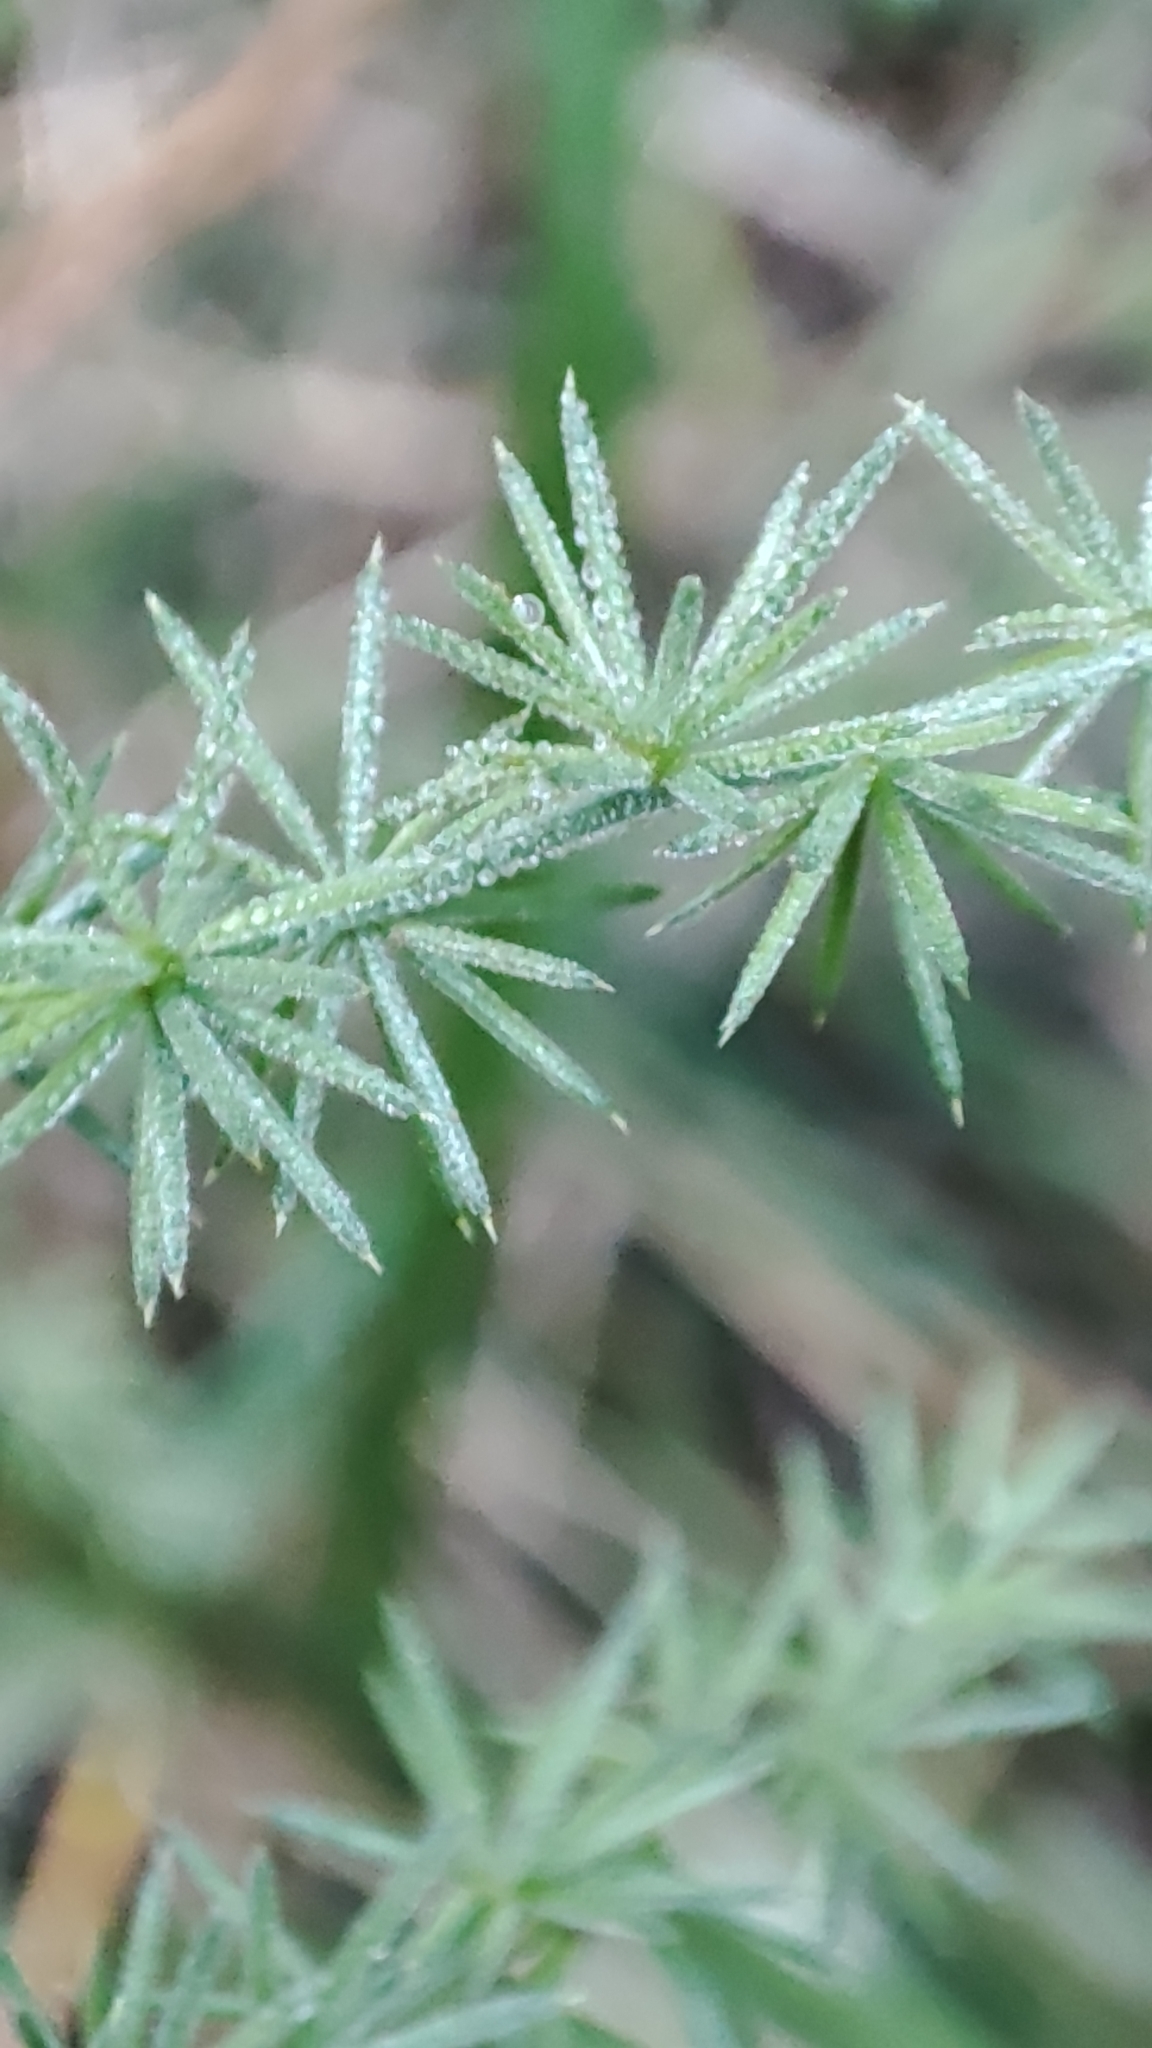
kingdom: Plantae
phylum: Tracheophyta
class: Liliopsida
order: Asparagales
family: Asparagaceae
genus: Asparagus
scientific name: Asparagus acutifolius
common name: Wild asparagus
